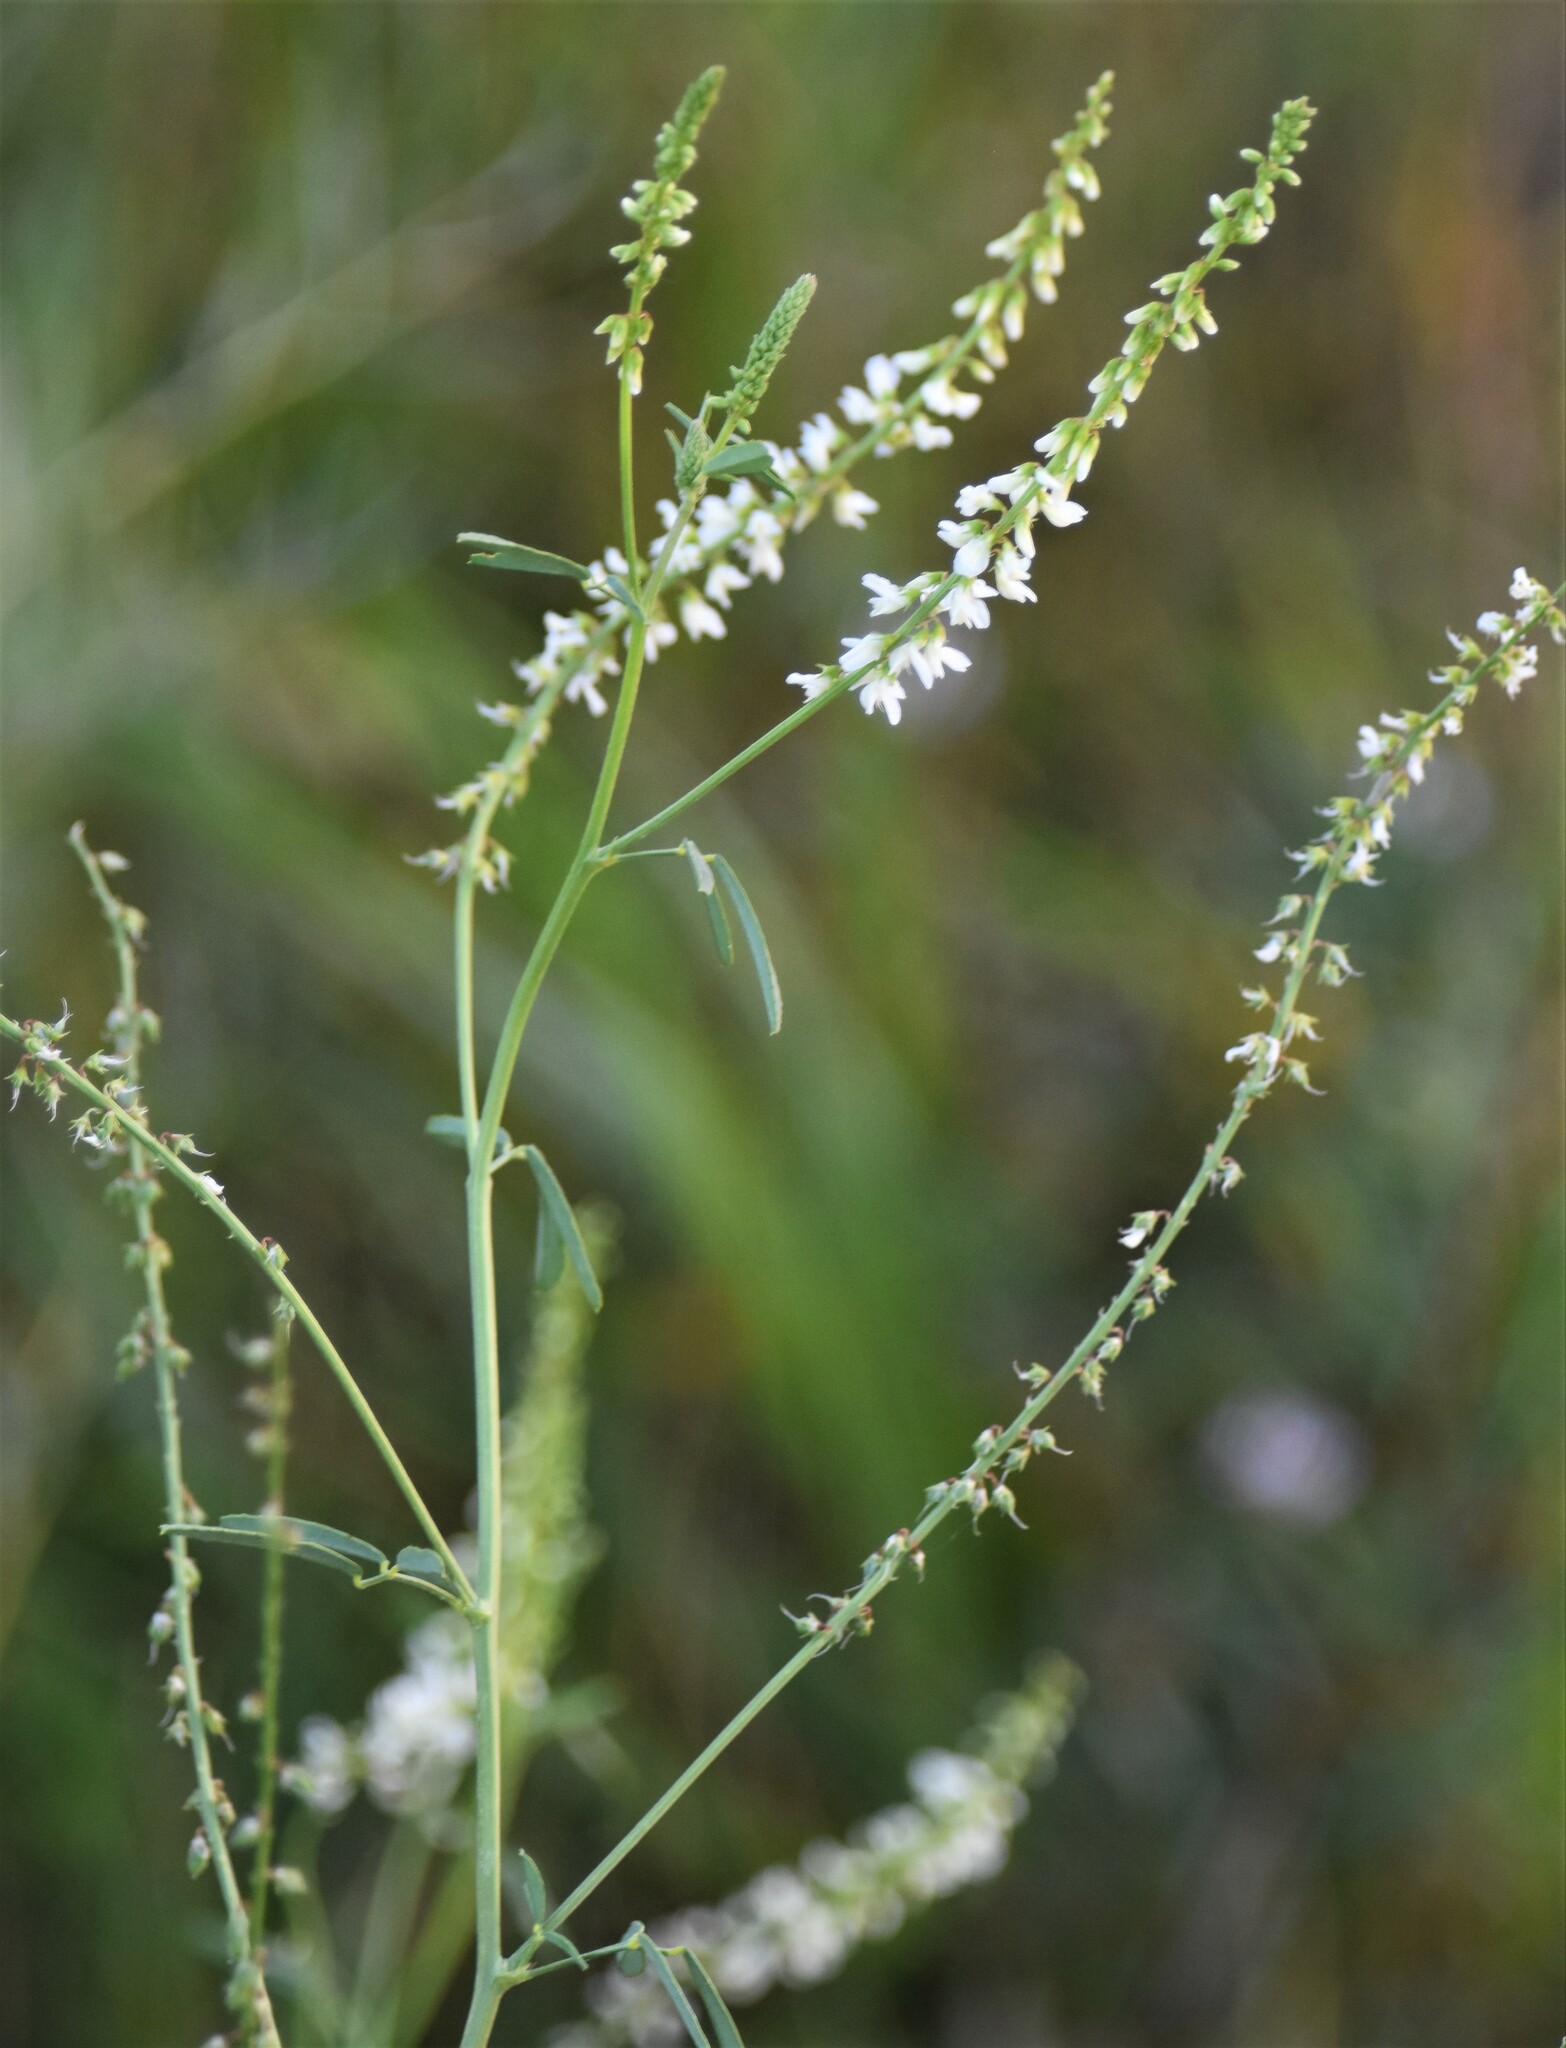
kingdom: Plantae
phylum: Tracheophyta
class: Magnoliopsida
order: Fabales
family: Fabaceae
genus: Melilotus
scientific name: Melilotus albus
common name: White melilot
